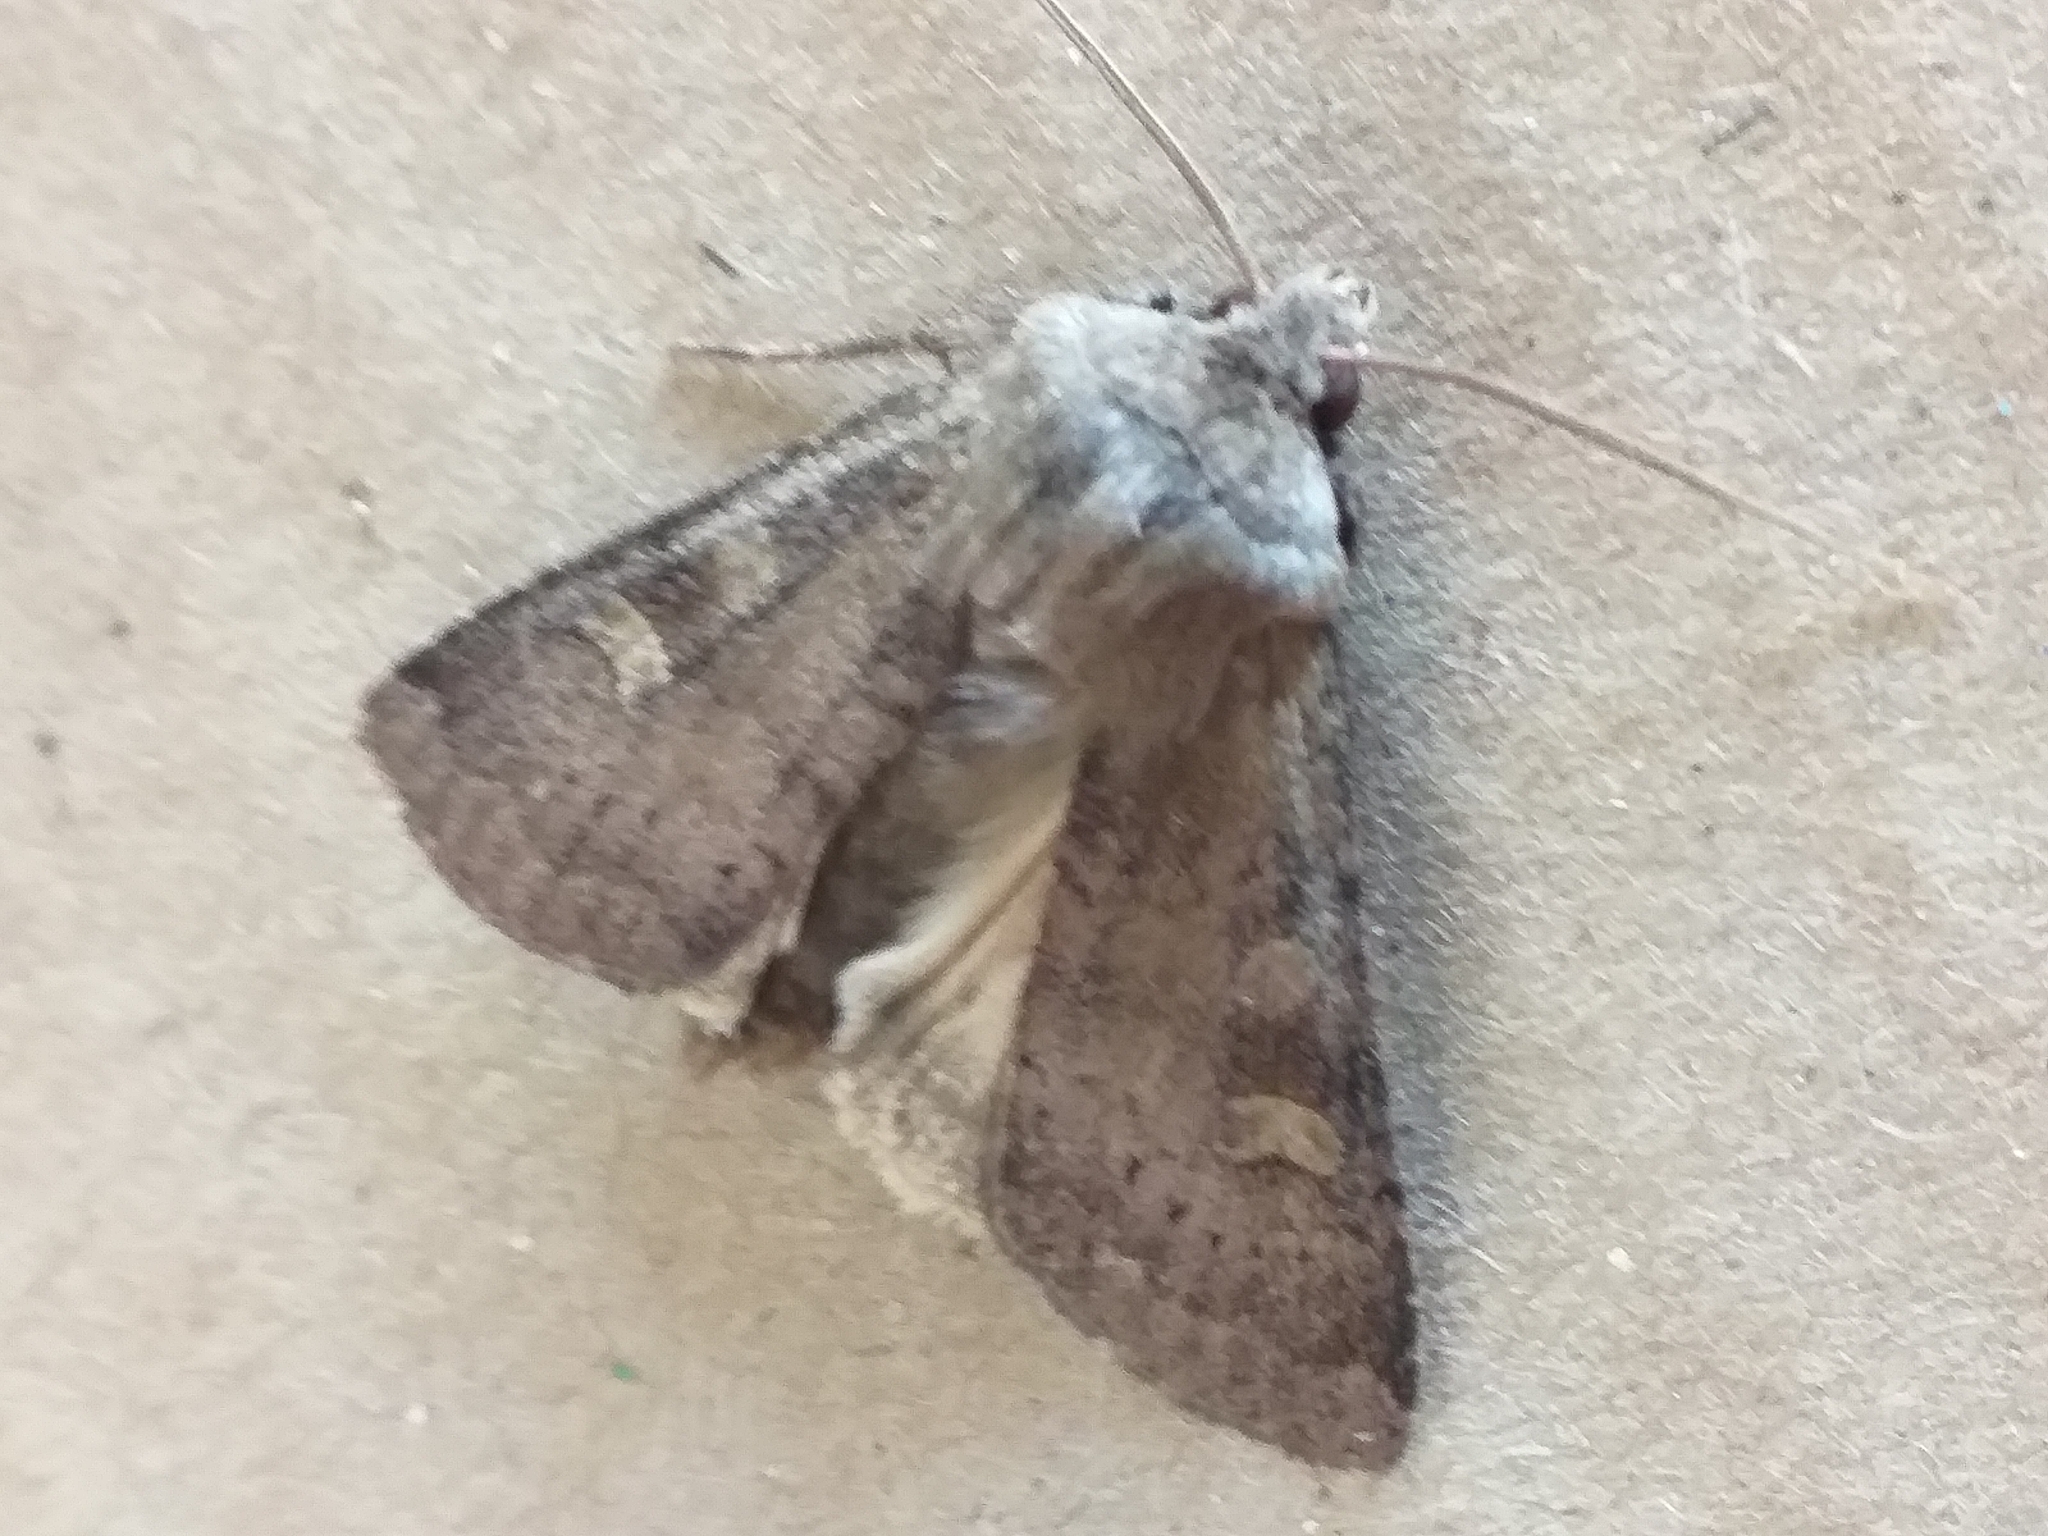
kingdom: Animalia
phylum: Arthropoda
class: Insecta
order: Lepidoptera
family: Noctuidae
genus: Xestia
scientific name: Xestia xanthographa
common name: Square-spot rustic
